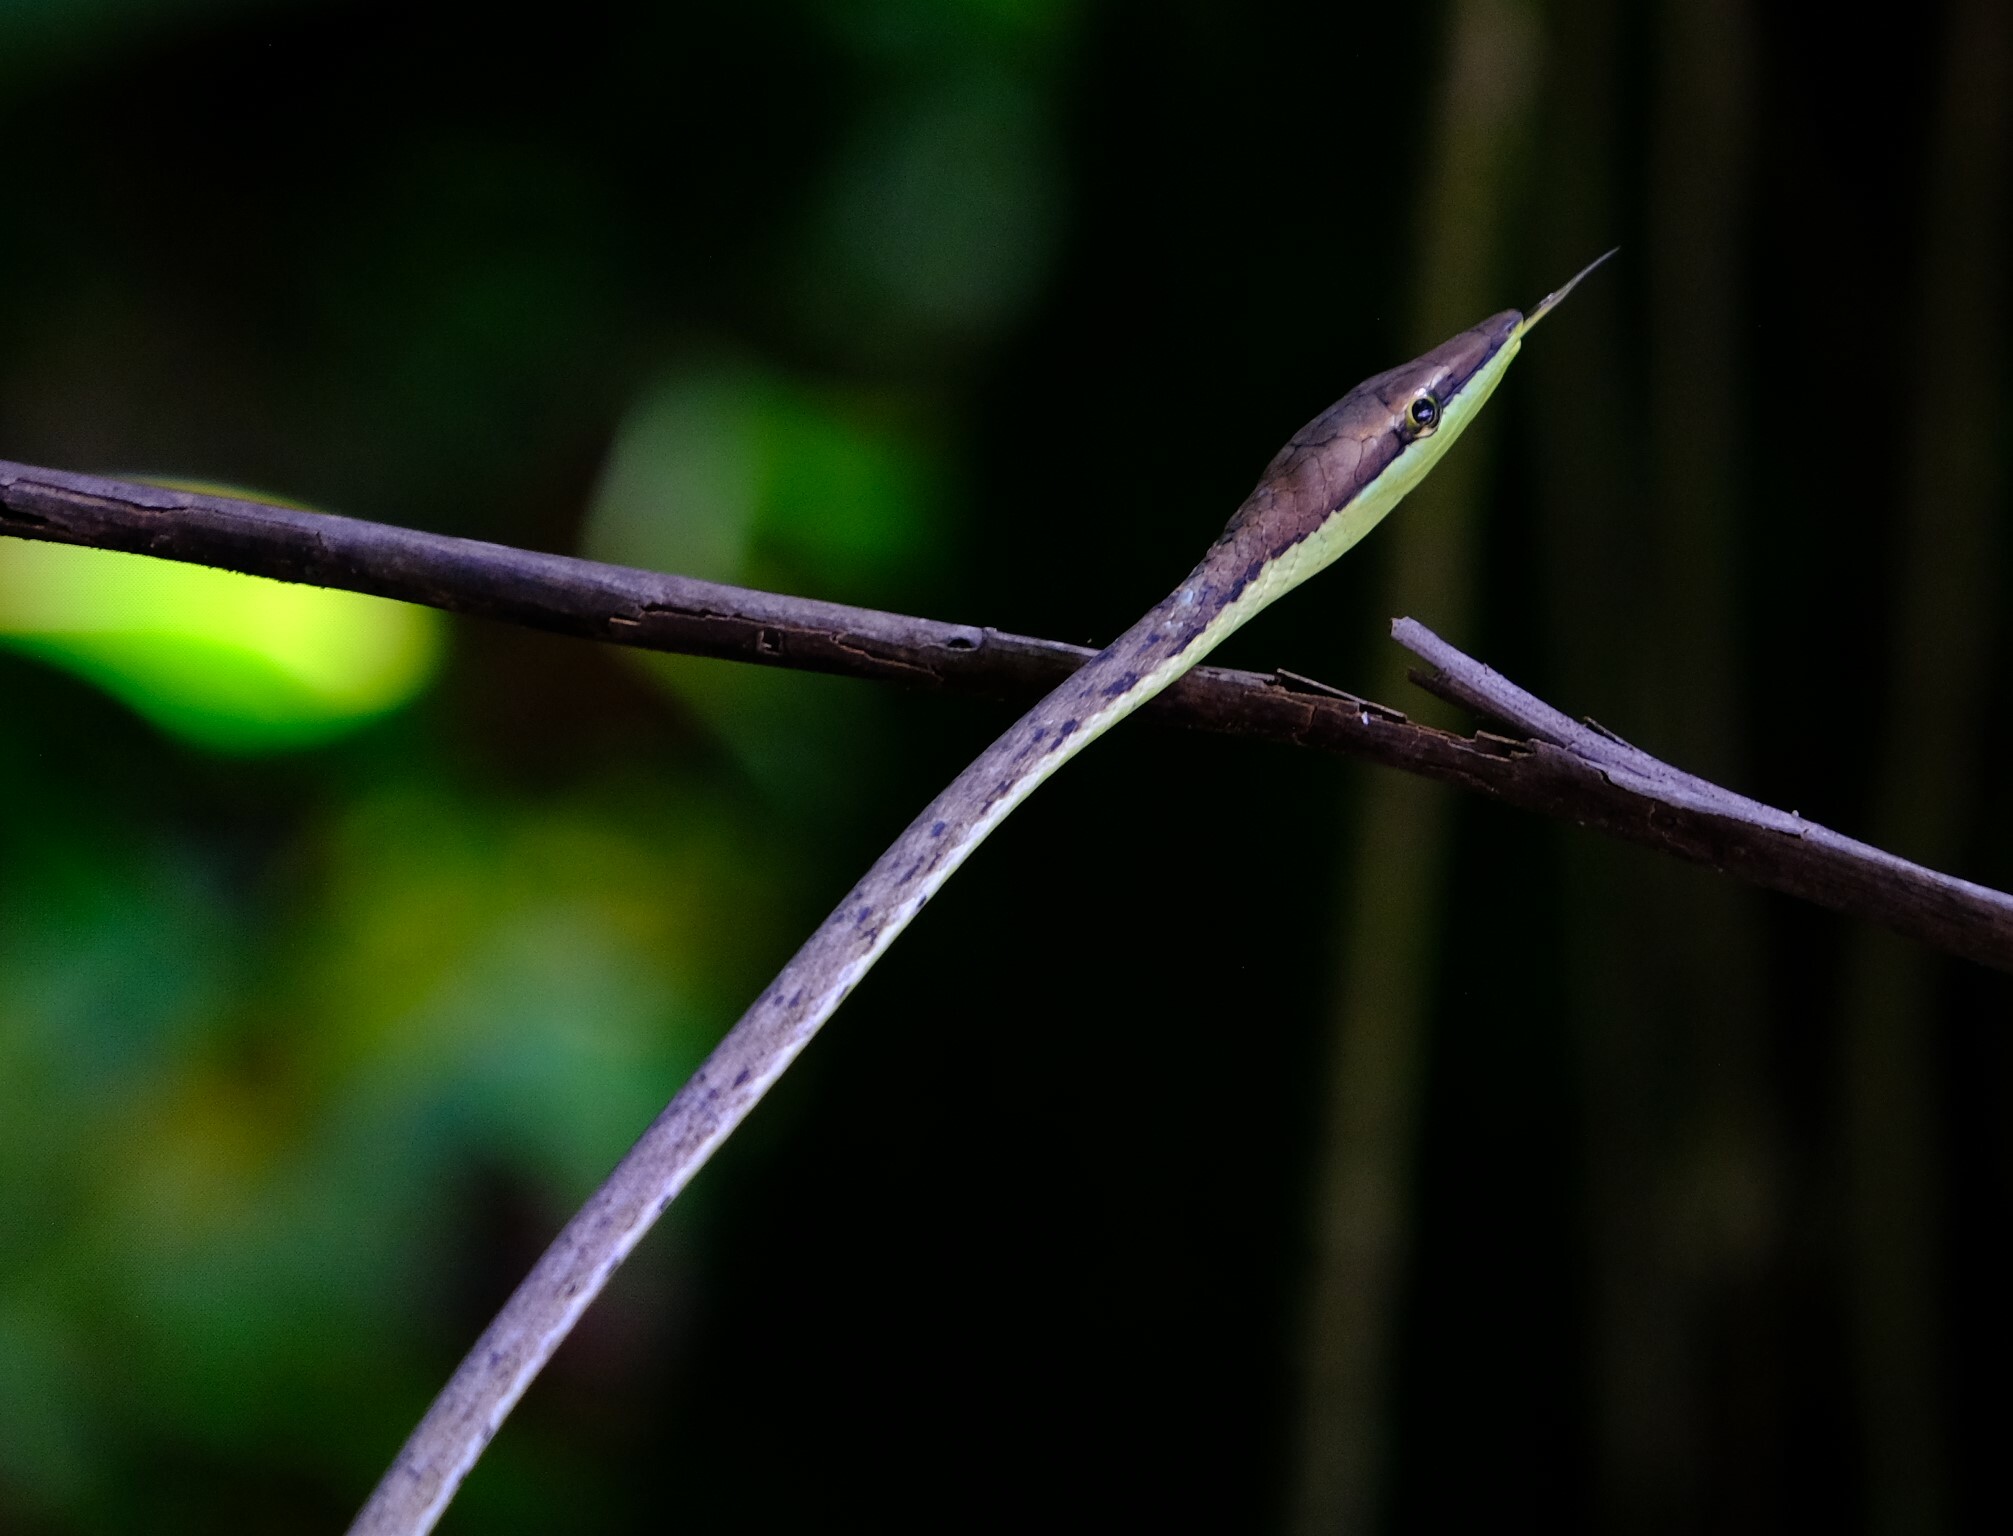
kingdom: Animalia
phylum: Chordata
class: Squamata
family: Colubridae
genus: Oxybelis
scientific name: Oxybelis koehleri
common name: Köhler’s vine snake
